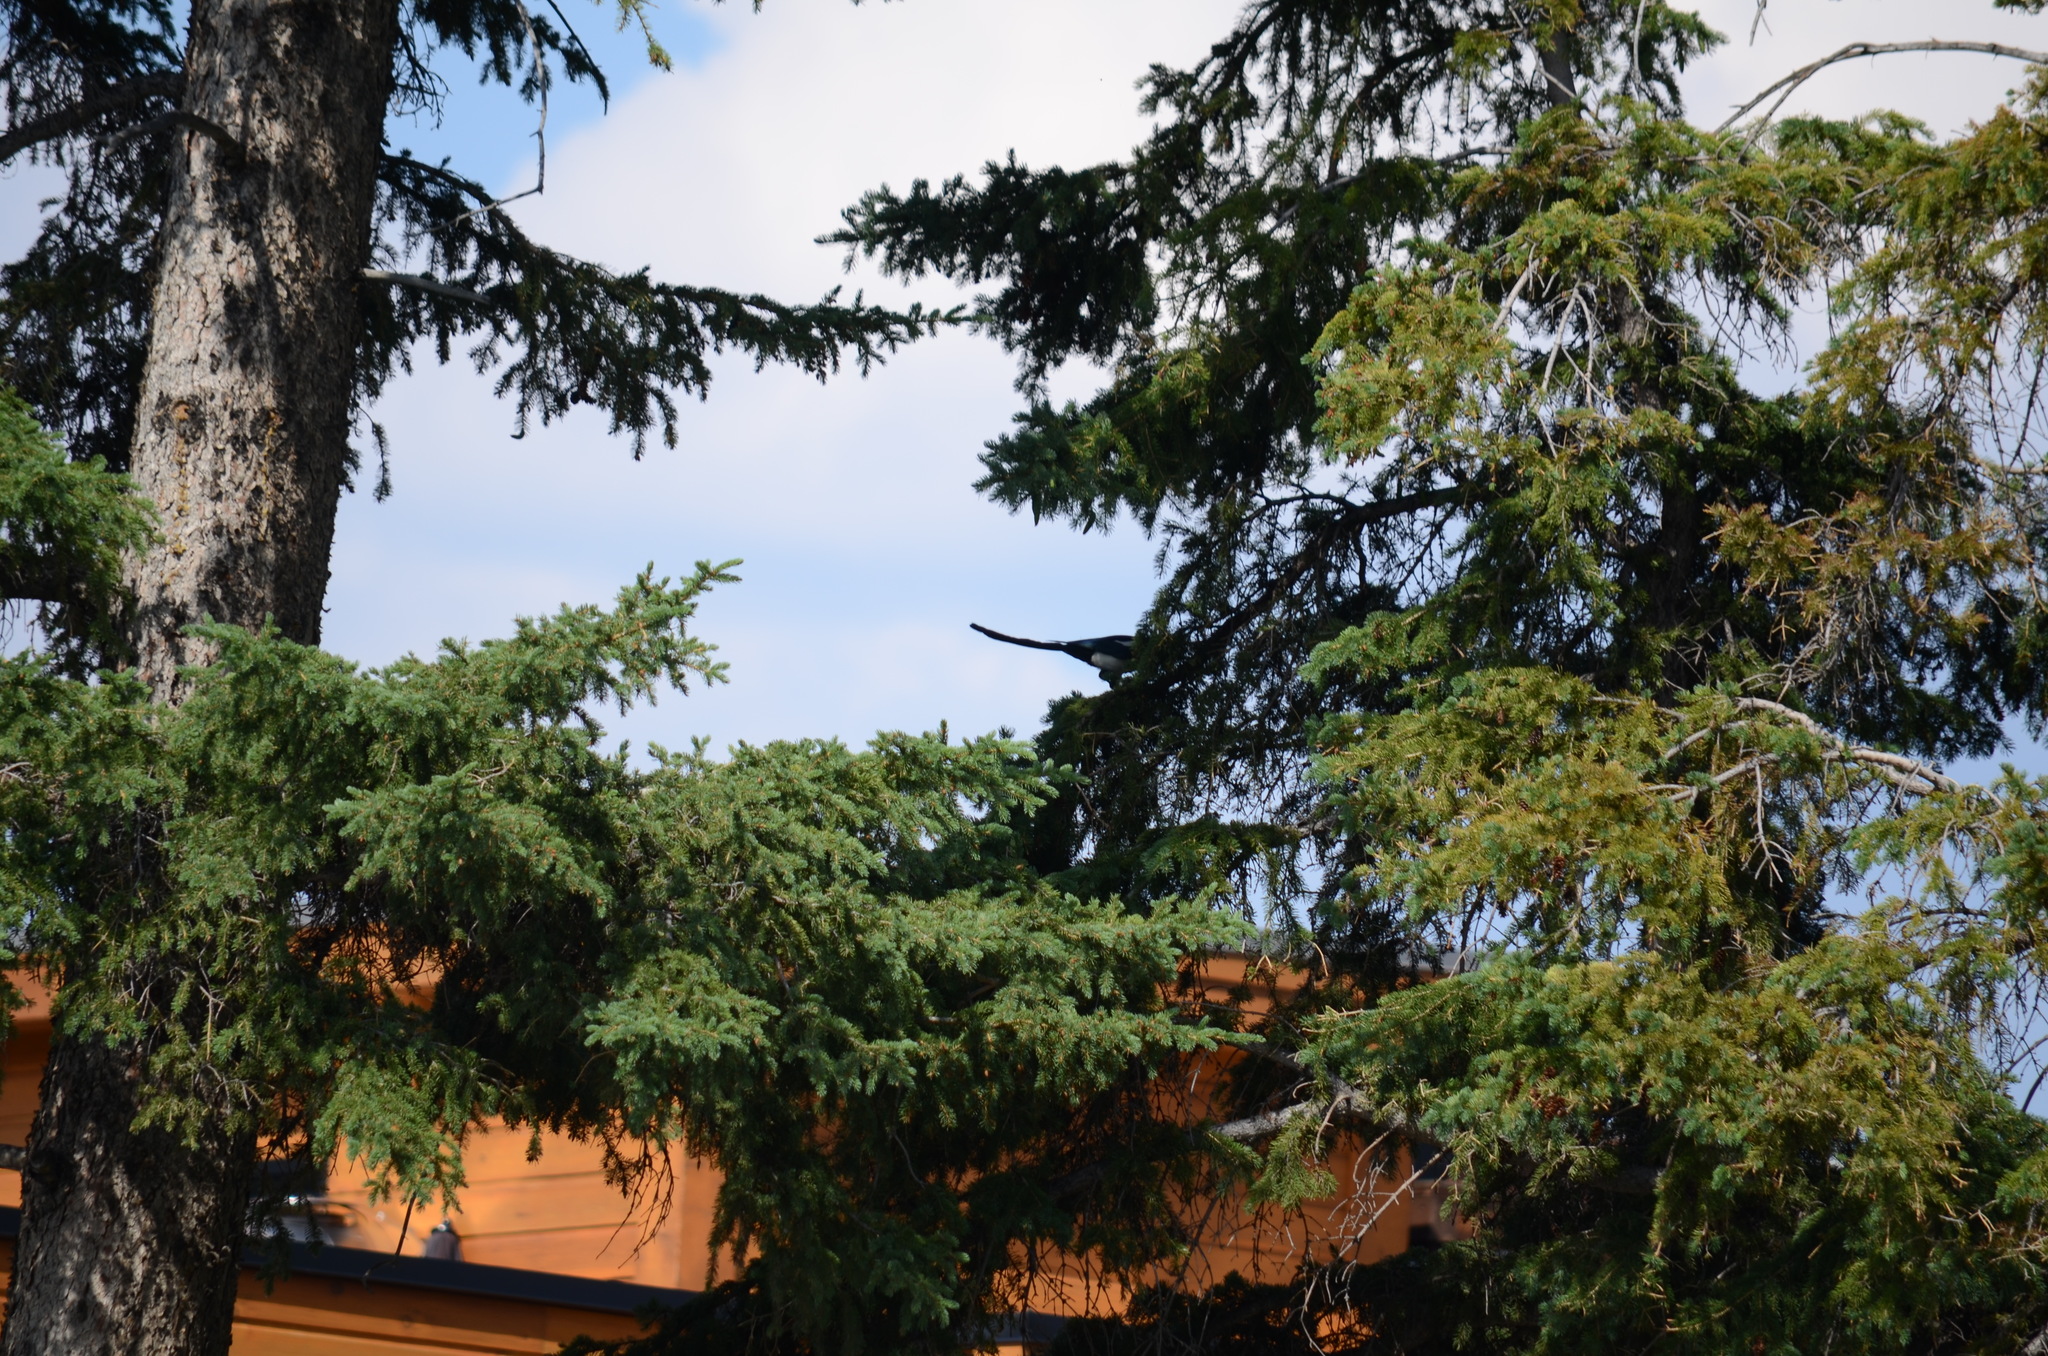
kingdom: Animalia
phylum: Chordata
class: Aves
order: Passeriformes
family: Corvidae
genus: Pica
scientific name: Pica hudsonia
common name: Black-billed magpie
